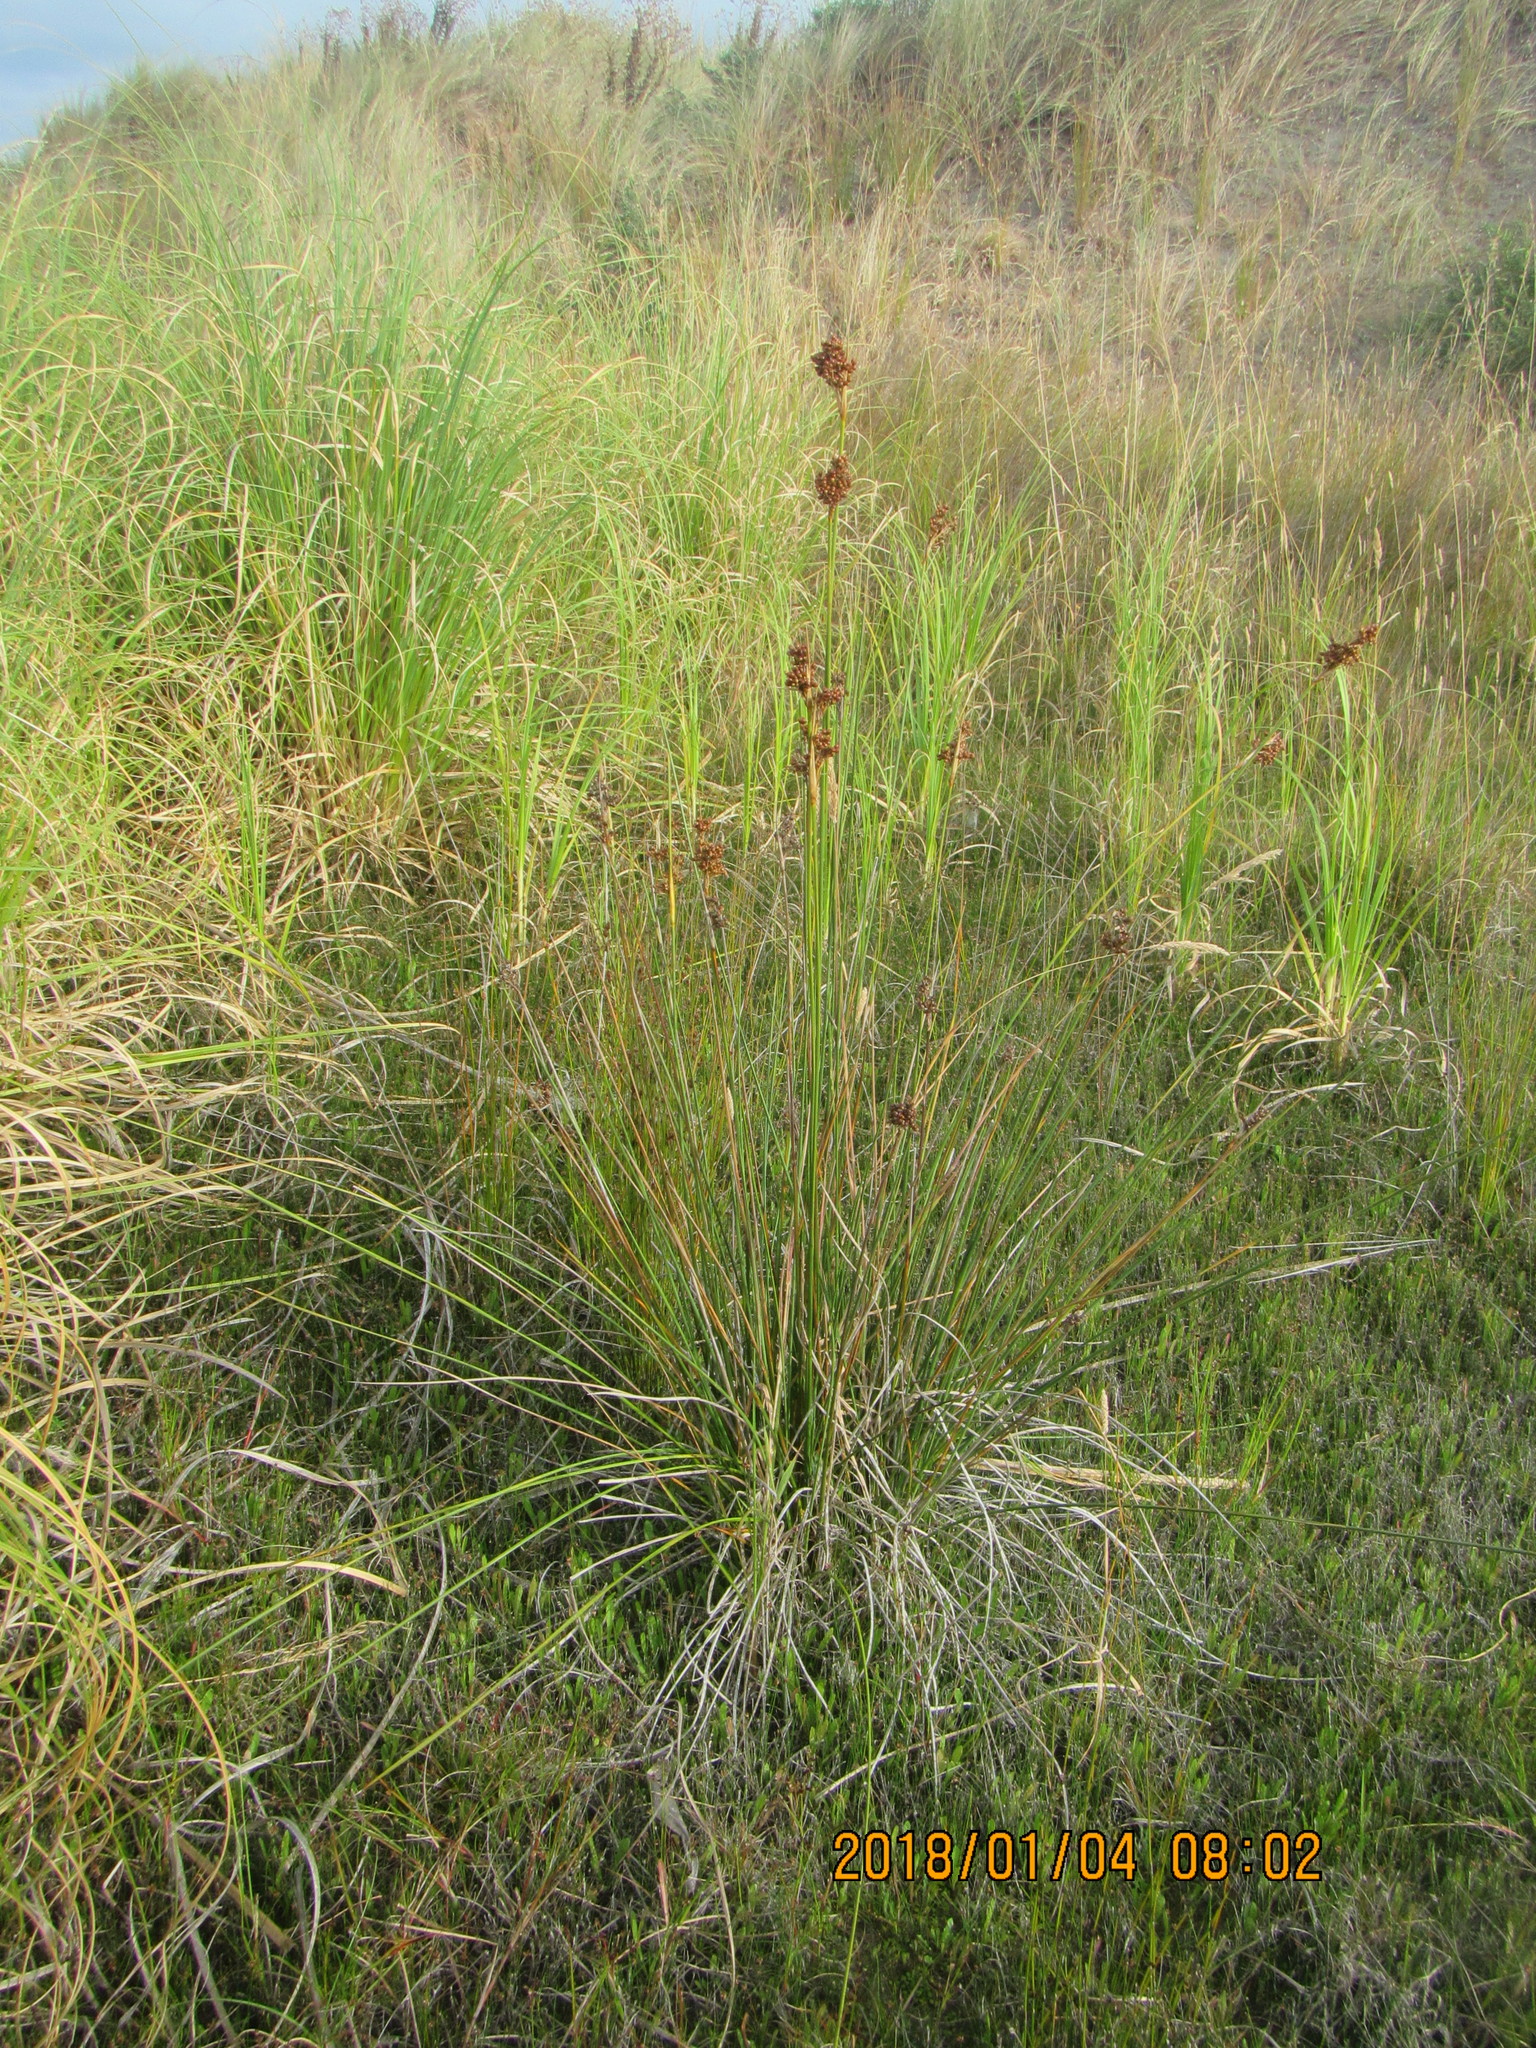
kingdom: Plantae
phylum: Tracheophyta
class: Liliopsida
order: Poales
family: Juncaceae
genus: Juncus
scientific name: Juncus acutus
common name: Sharp rush
